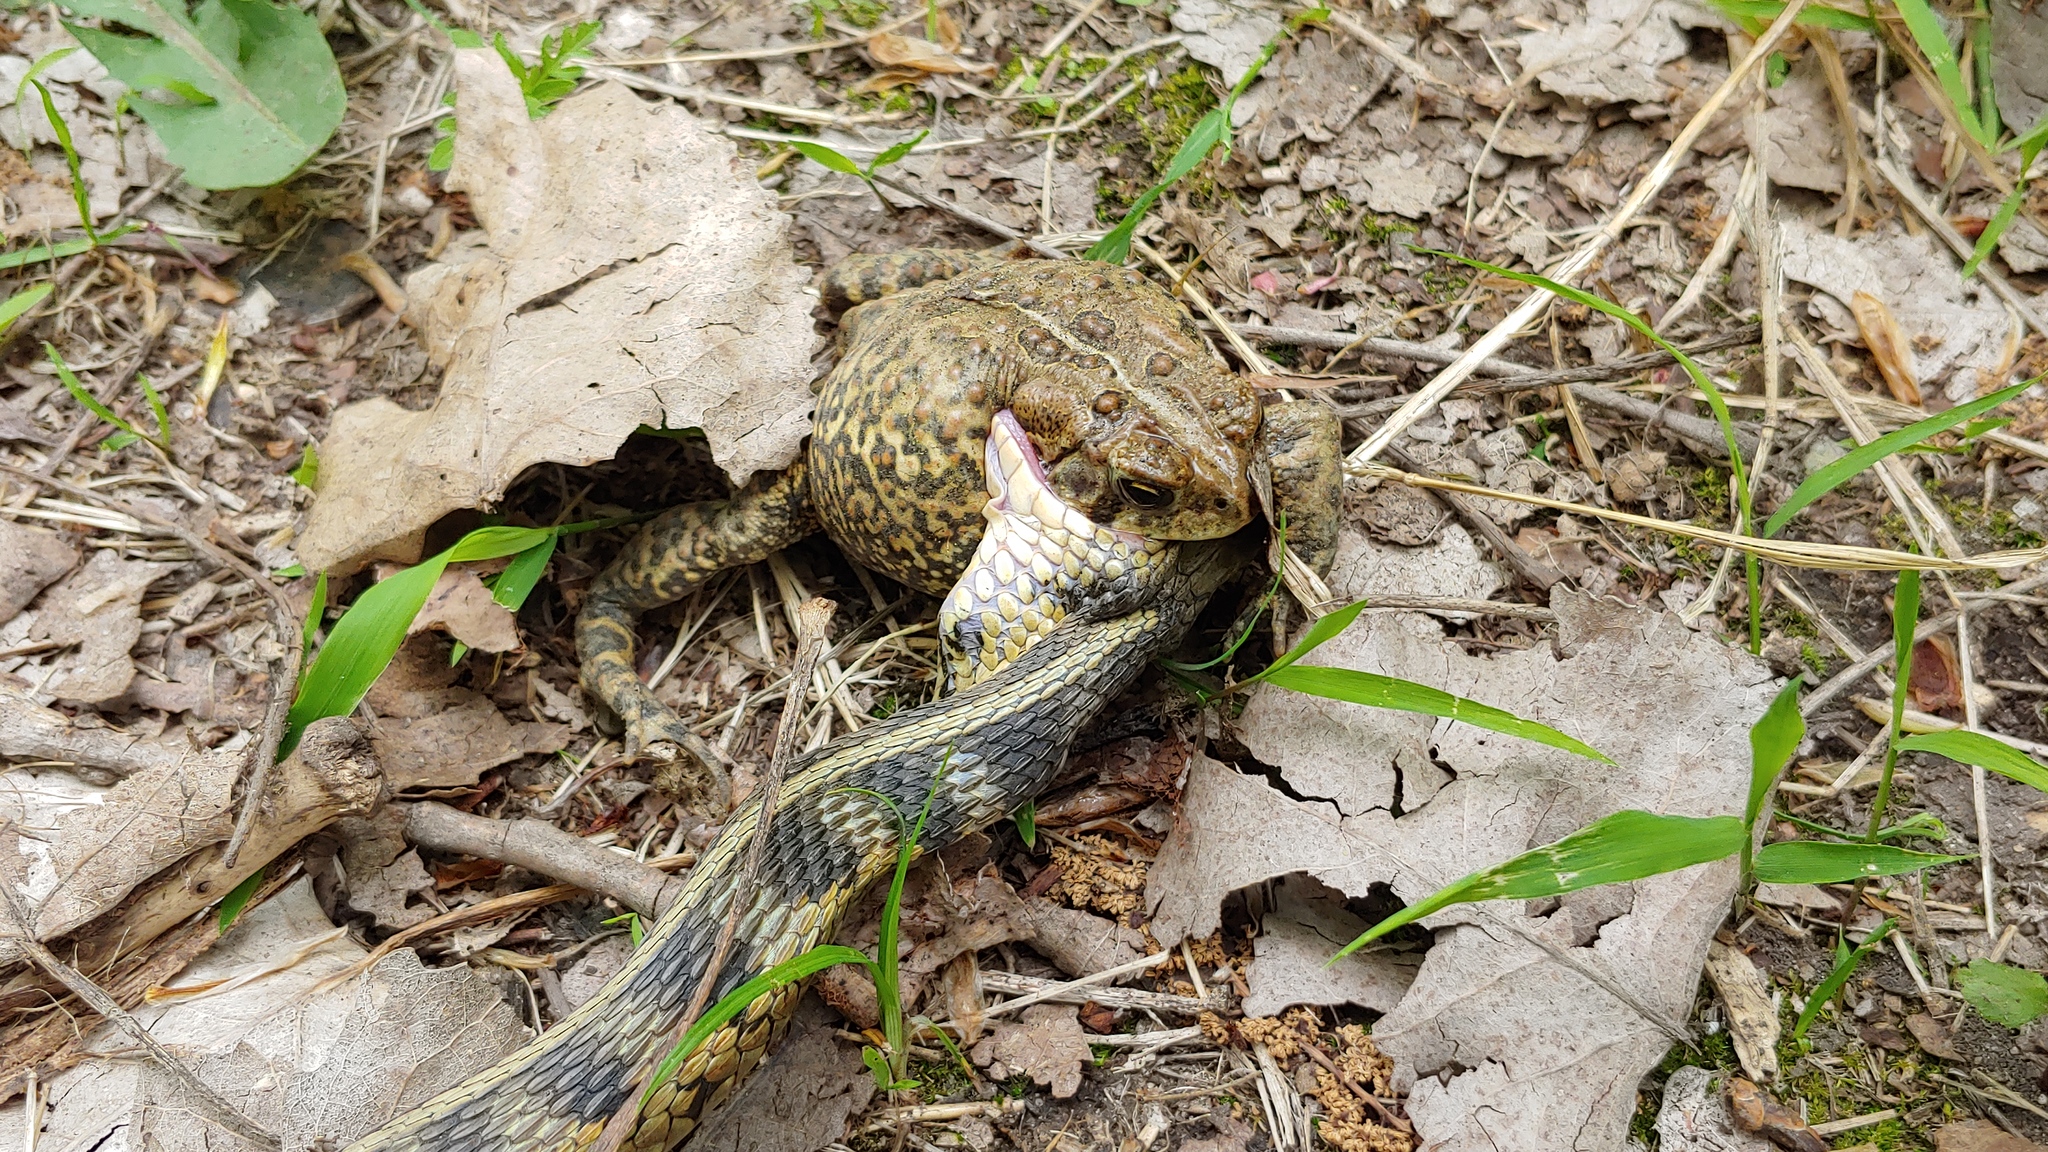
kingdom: Animalia
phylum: Chordata
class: Amphibia
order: Anura
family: Bufonidae
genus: Anaxyrus
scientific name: Anaxyrus americanus
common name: American toad
